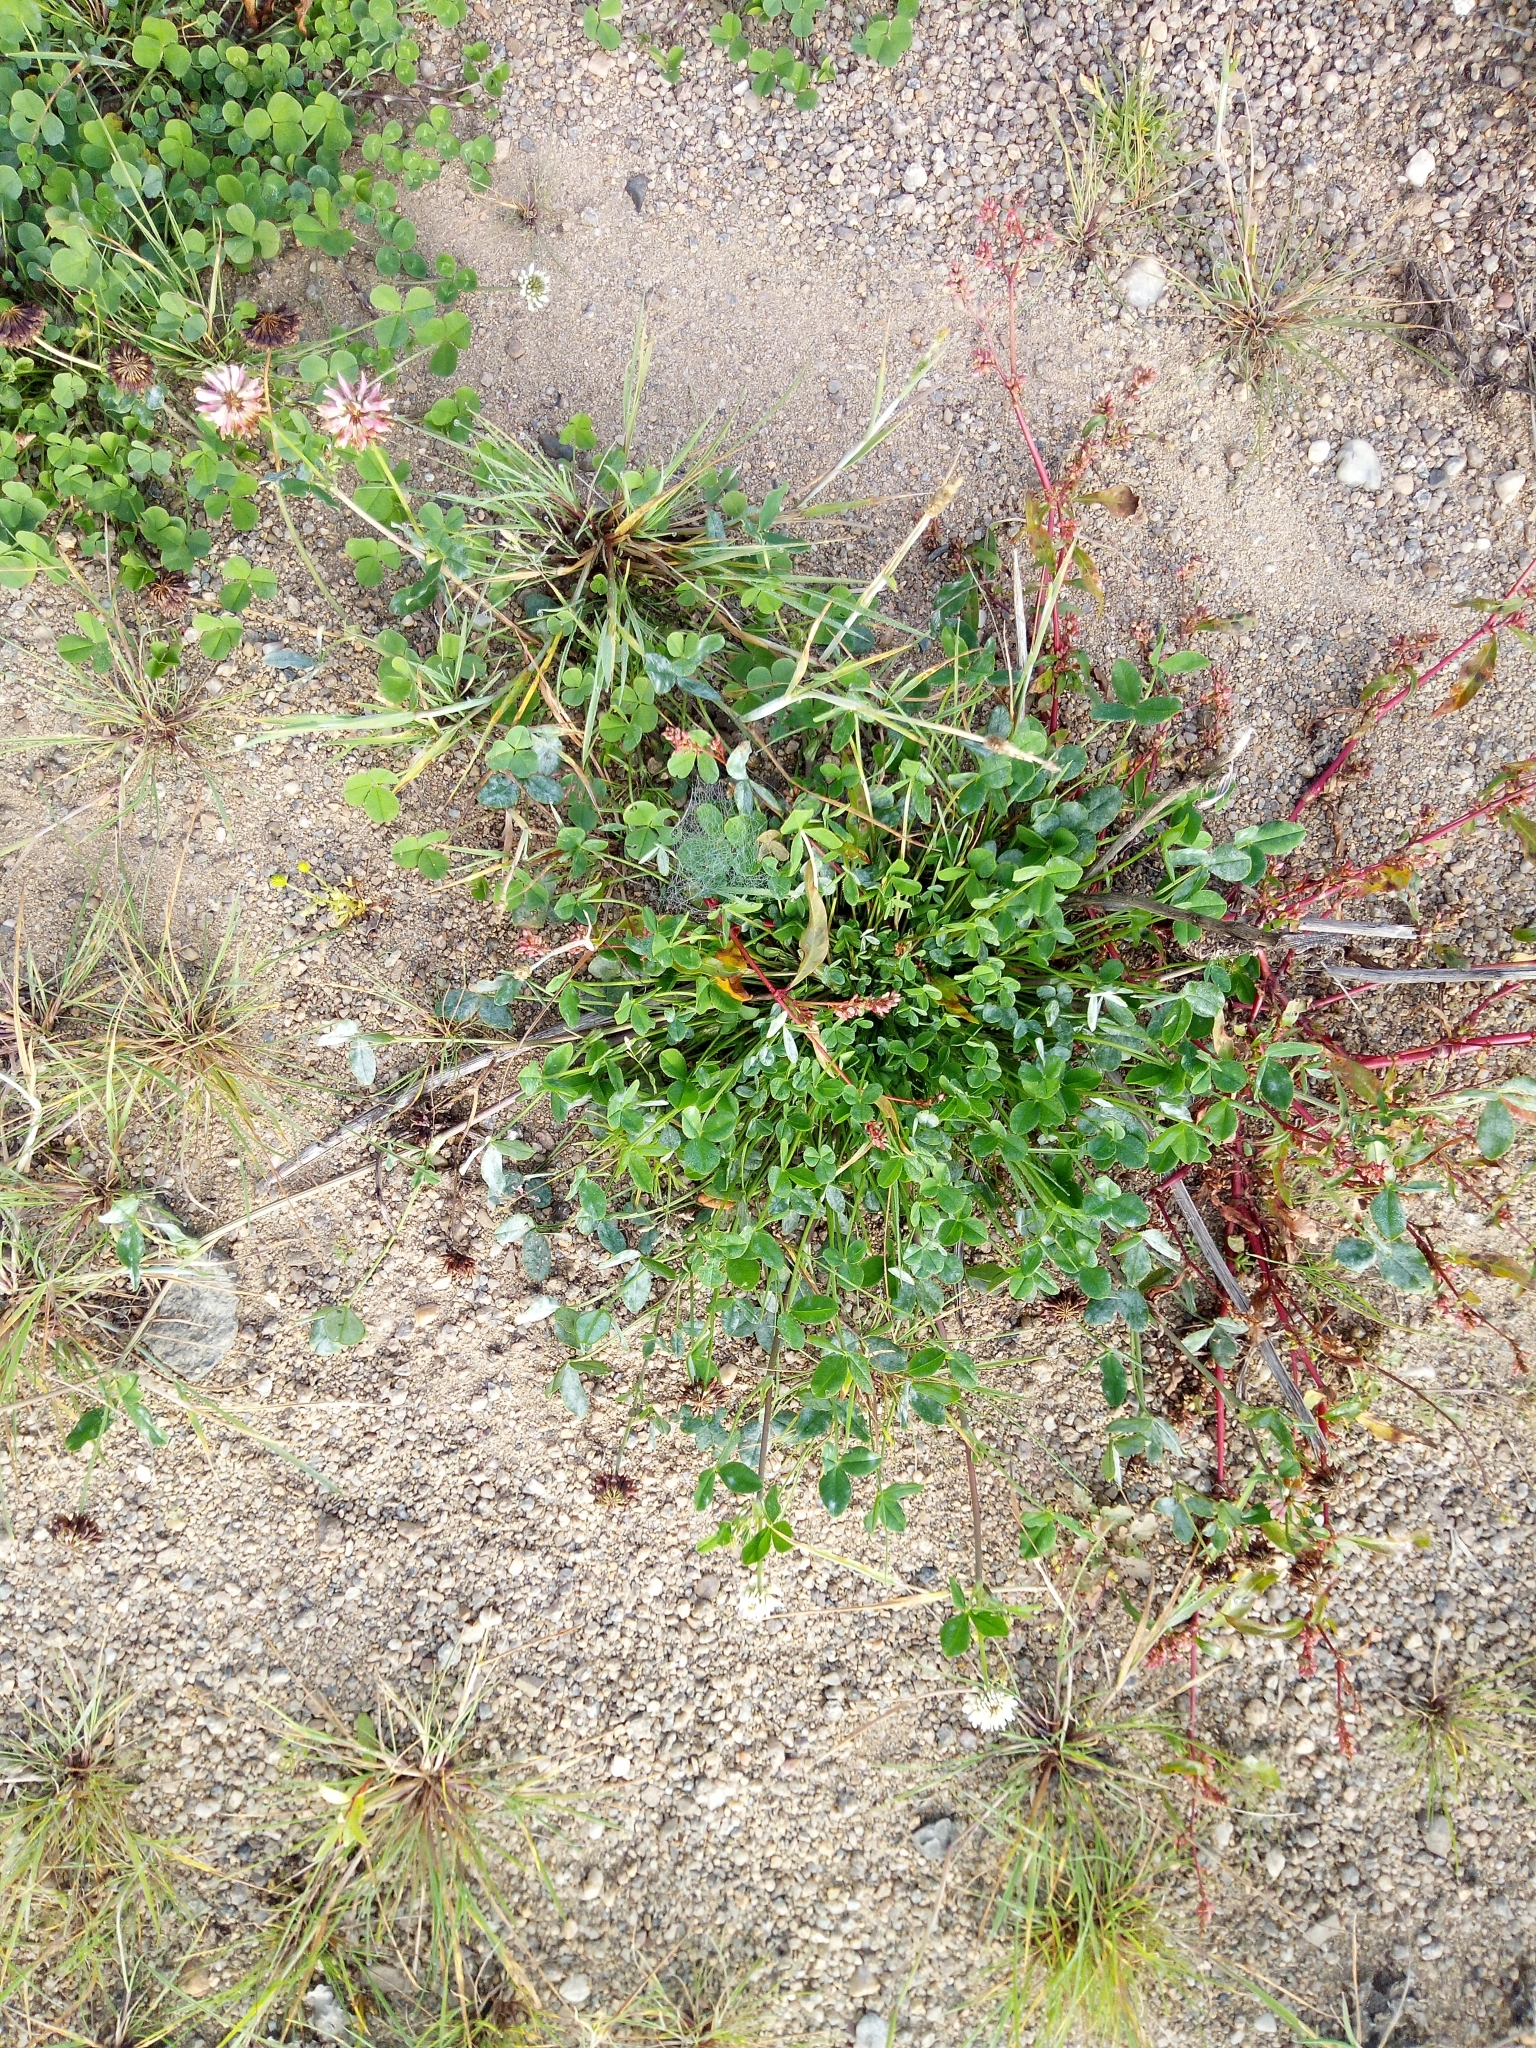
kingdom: Plantae
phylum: Tracheophyta
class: Magnoliopsida
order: Fabales
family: Fabaceae
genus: Trifolium
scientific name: Trifolium repens
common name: White clover
